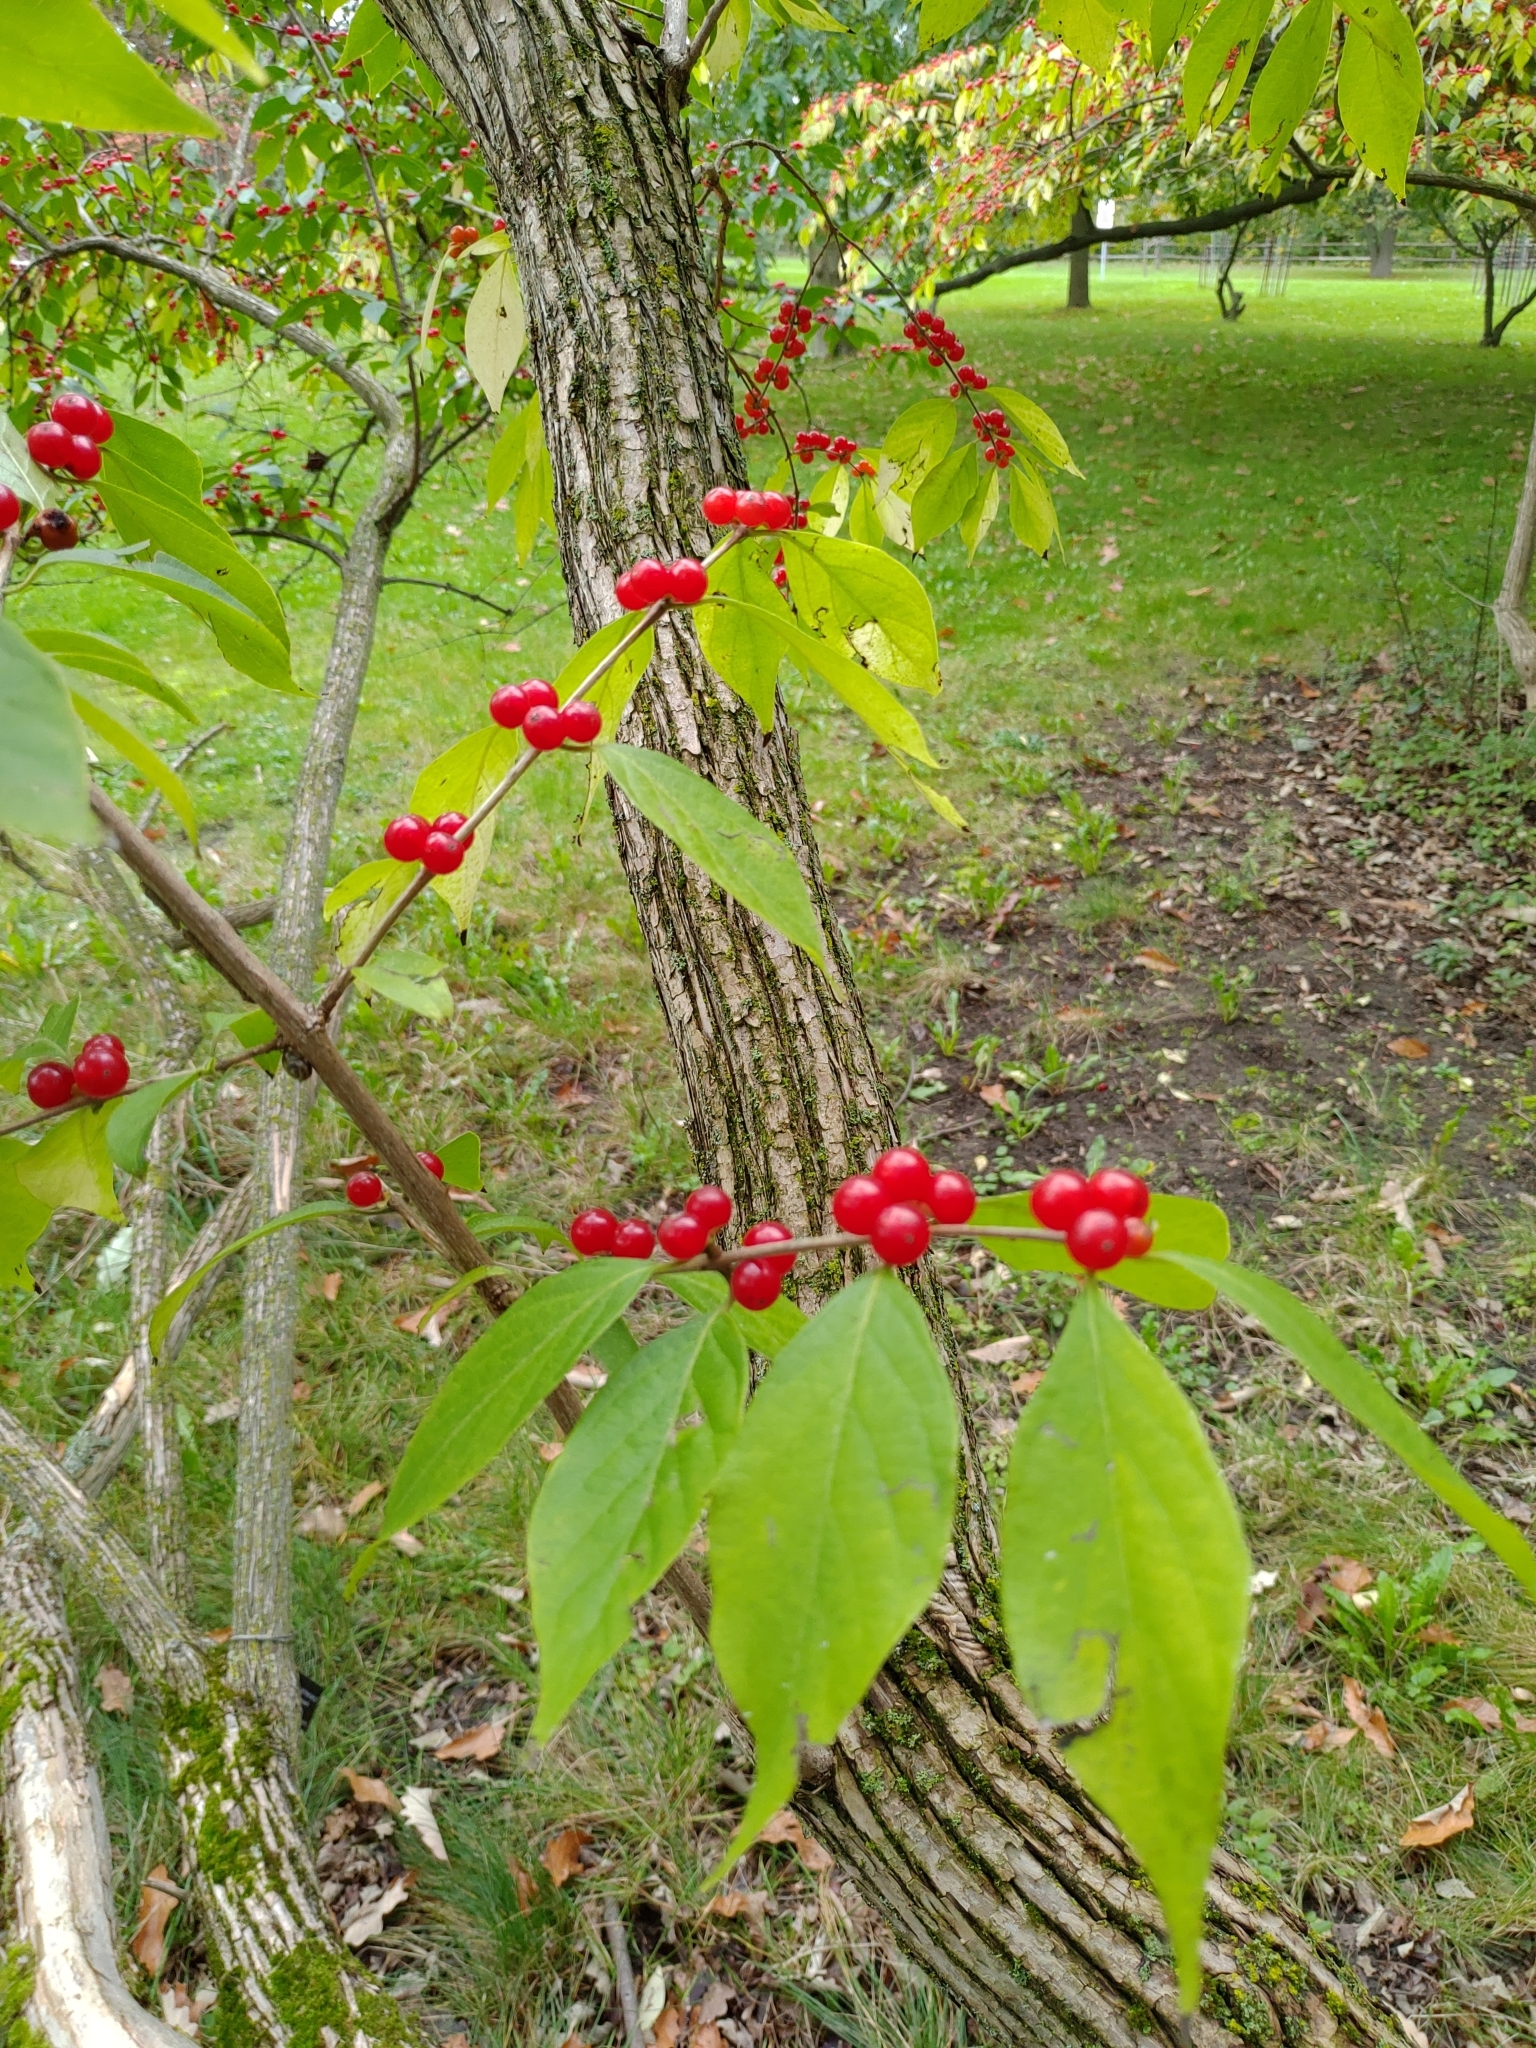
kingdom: Plantae
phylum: Tracheophyta
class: Magnoliopsida
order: Dipsacales
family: Caprifoliaceae
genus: Lonicera
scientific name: Lonicera maackii
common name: Amur honeysuckle
